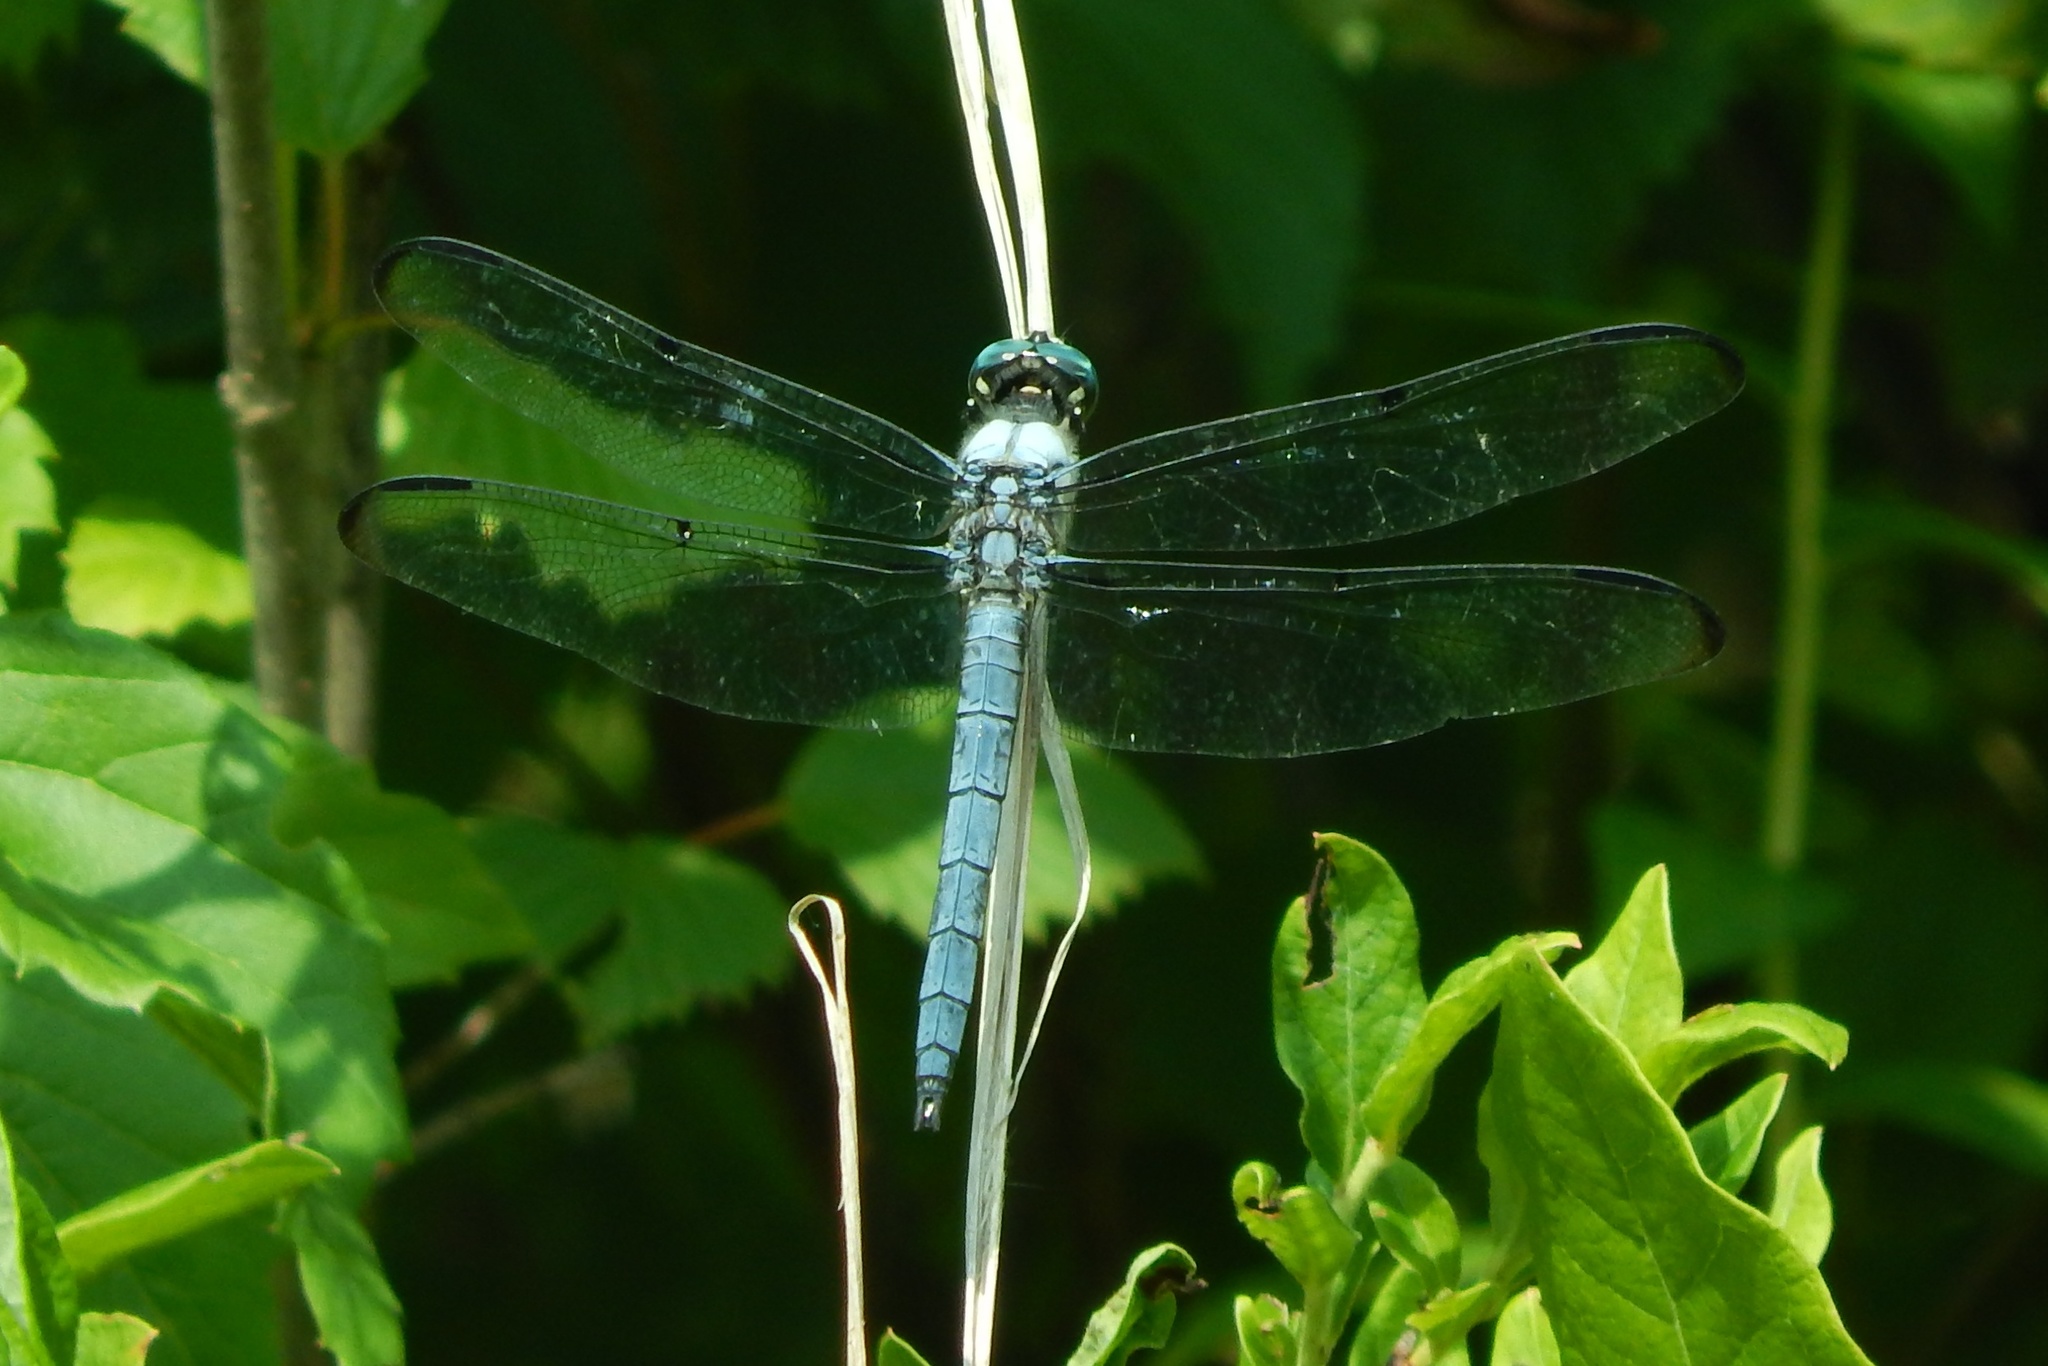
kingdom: Animalia
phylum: Arthropoda
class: Insecta
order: Odonata
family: Libellulidae
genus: Libellula
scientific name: Libellula vibrans
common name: Great blue skimmer
